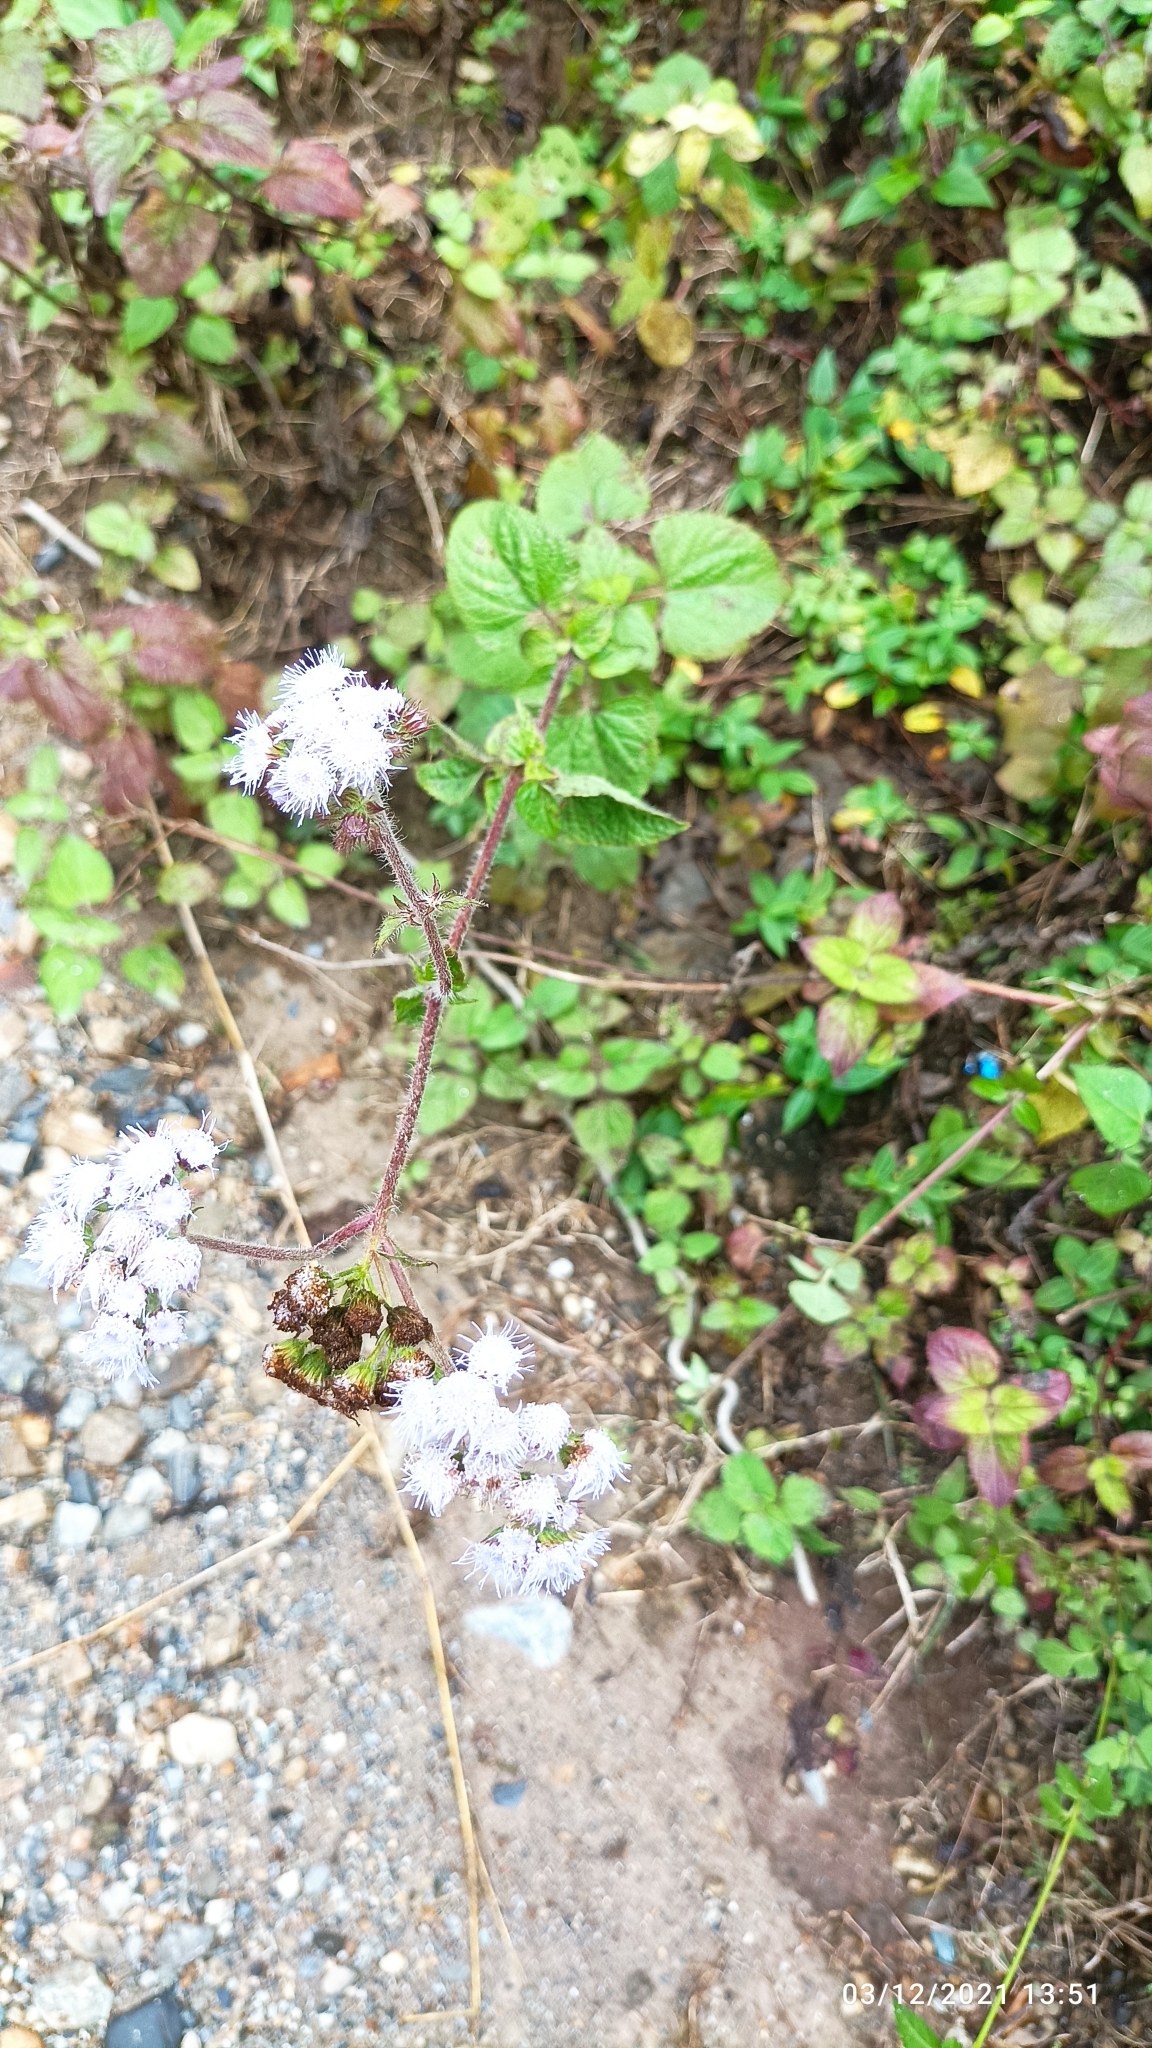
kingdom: Plantae
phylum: Tracheophyta
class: Magnoliopsida
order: Asterales
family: Asteraceae
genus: Ageratum
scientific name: Ageratum houstonianum
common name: Bluemink
